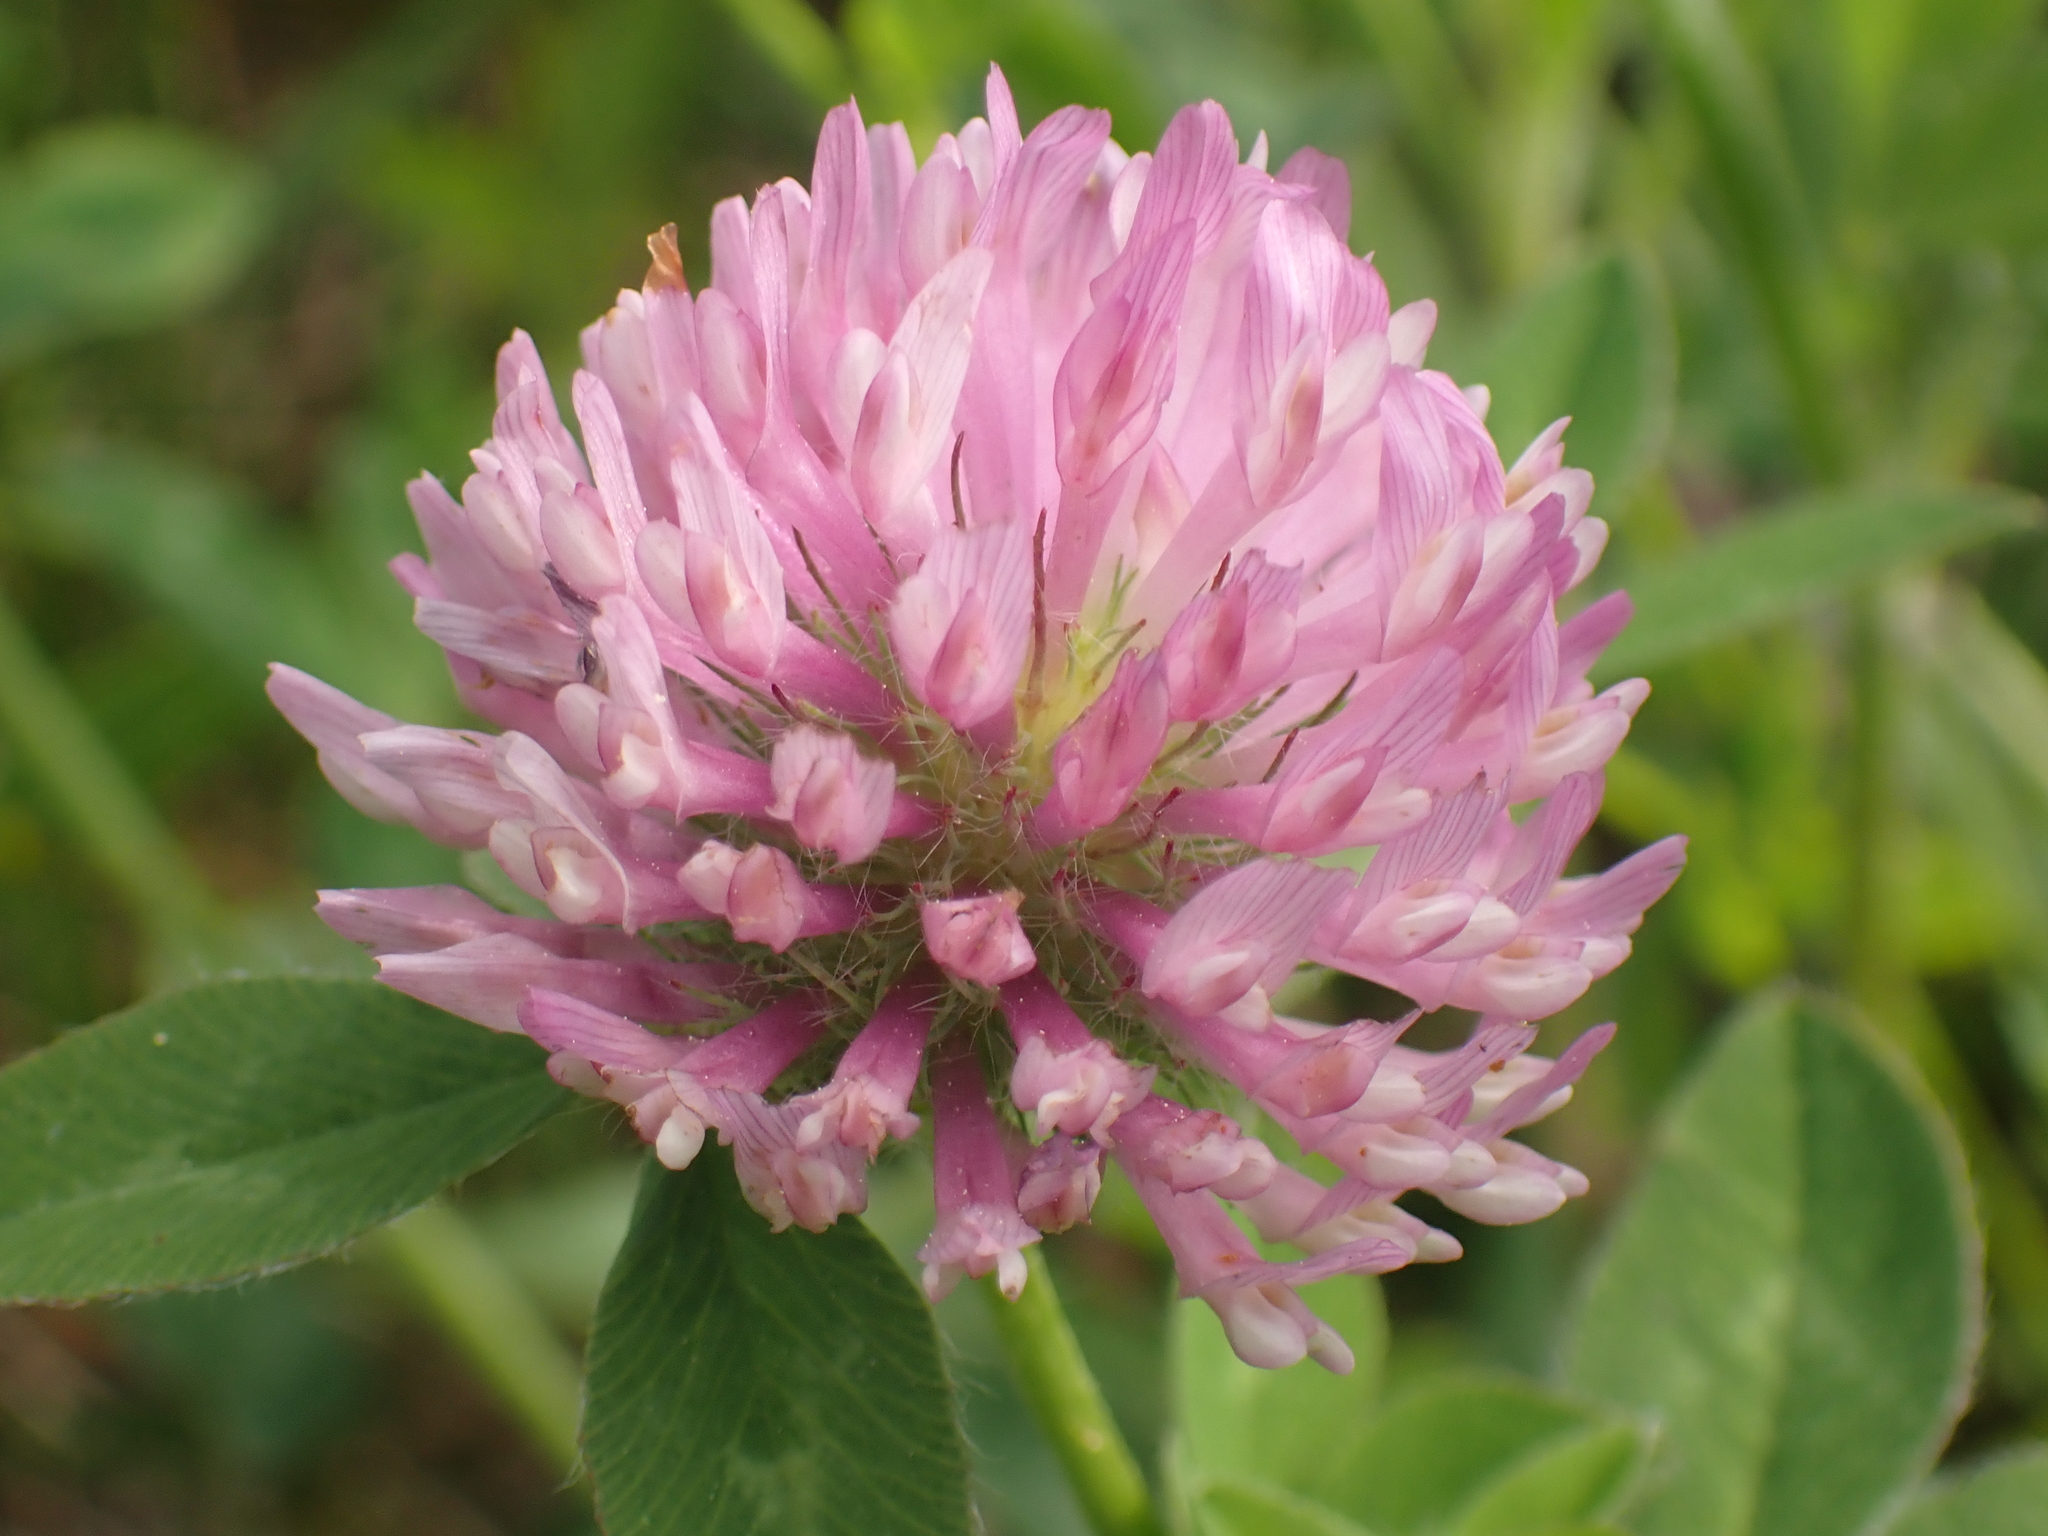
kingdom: Plantae
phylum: Tracheophyta
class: Magnoliopsida
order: Fabales
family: Fabaceae
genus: Trifolium
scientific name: Trifolium pratense
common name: Red clover
